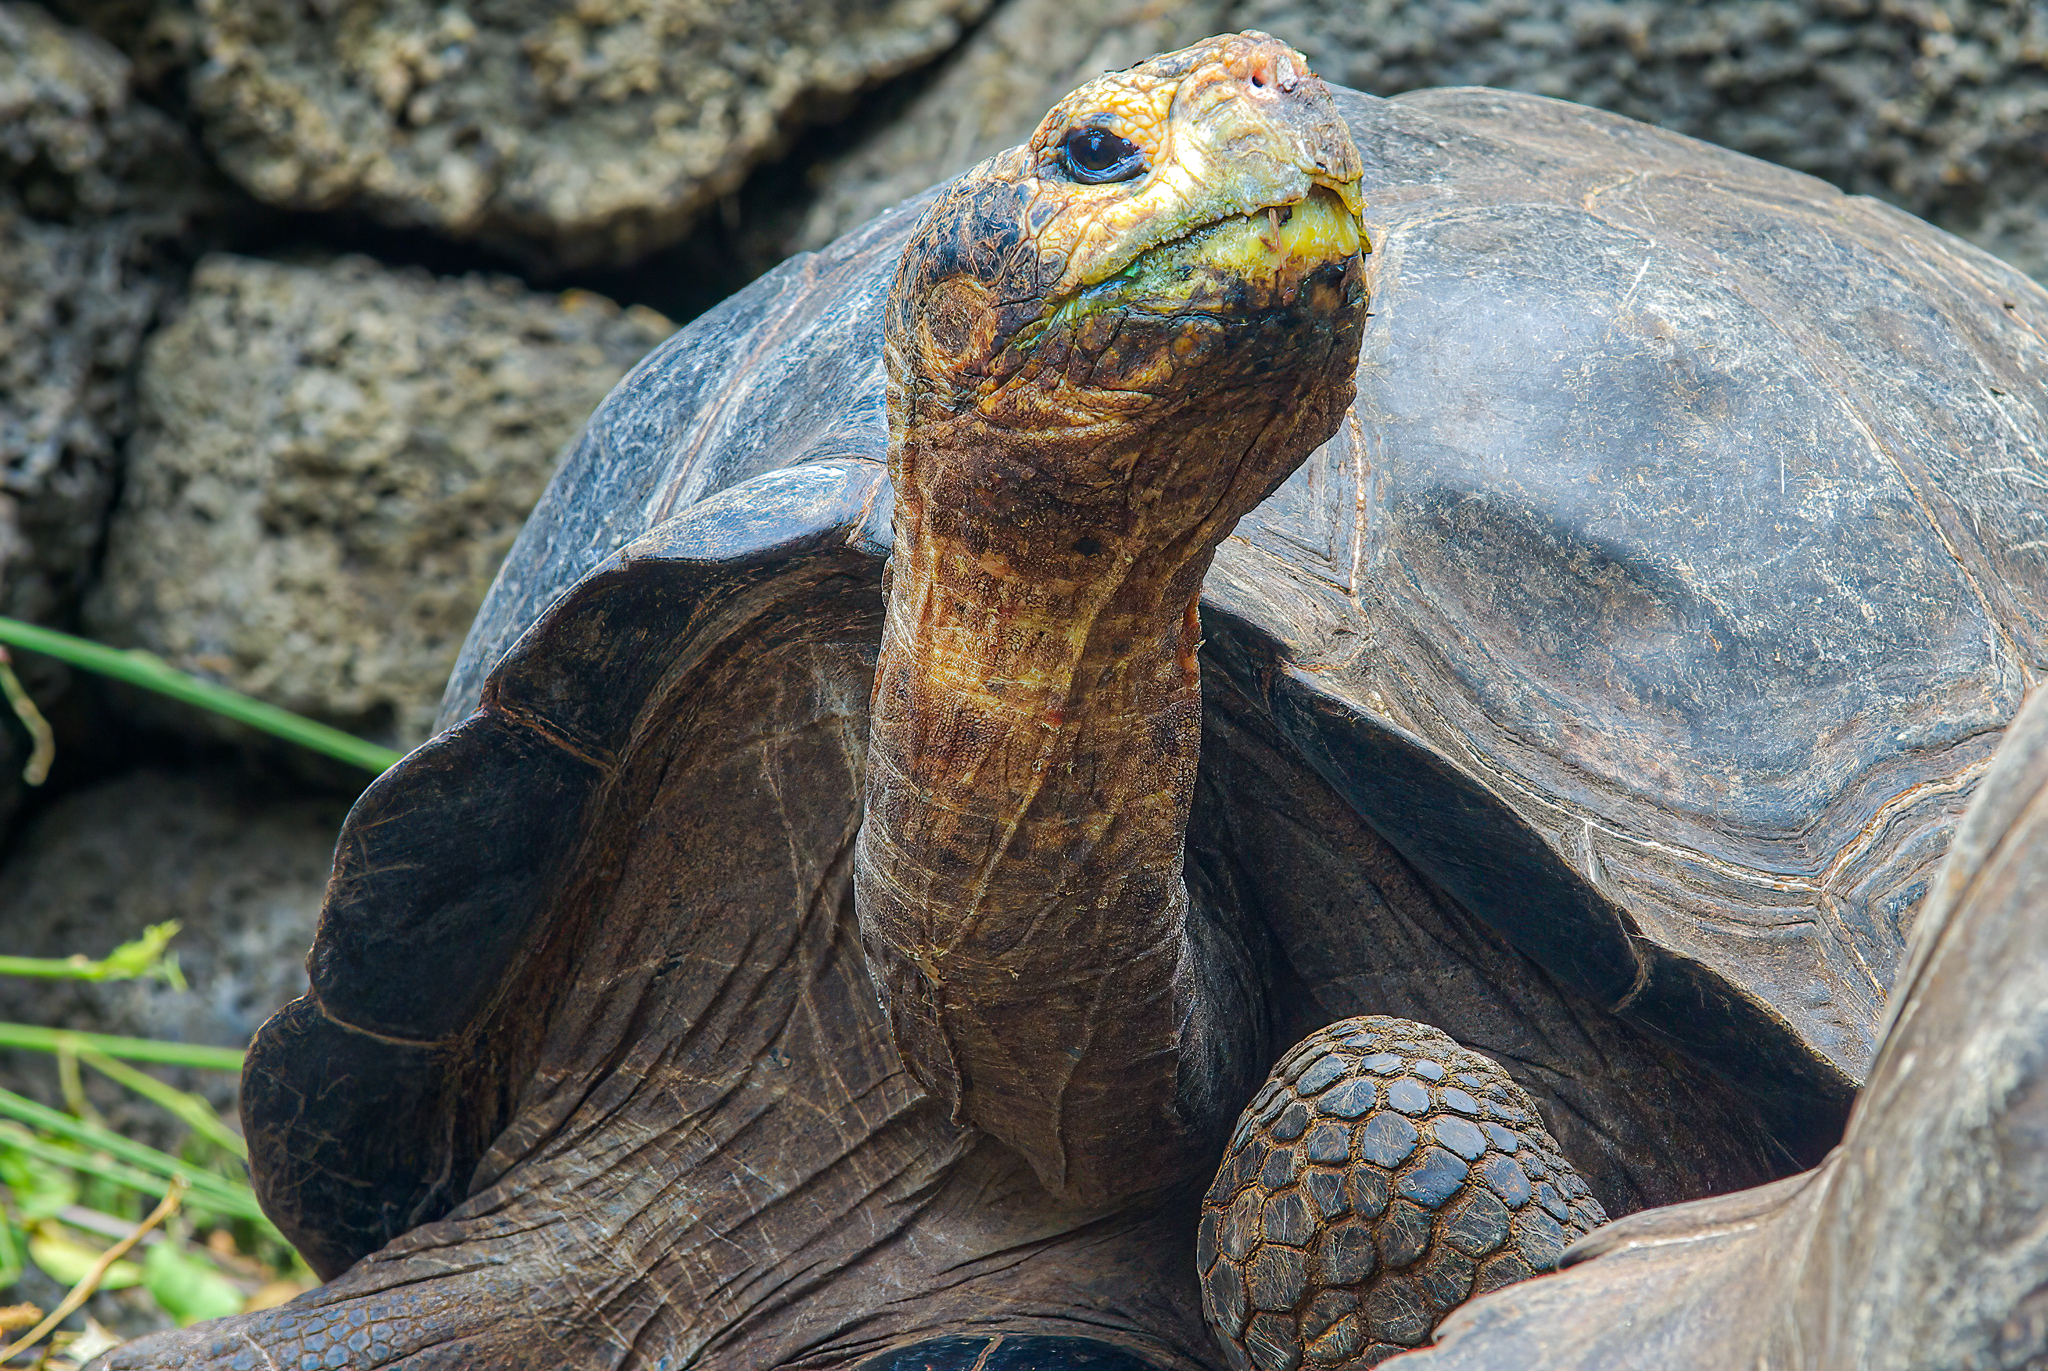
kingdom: Animalia
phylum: Chordata
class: Testudines
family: Testudinidae
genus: Chelonoidis
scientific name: Chelonoidis niger
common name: Charles island giant tortoise
